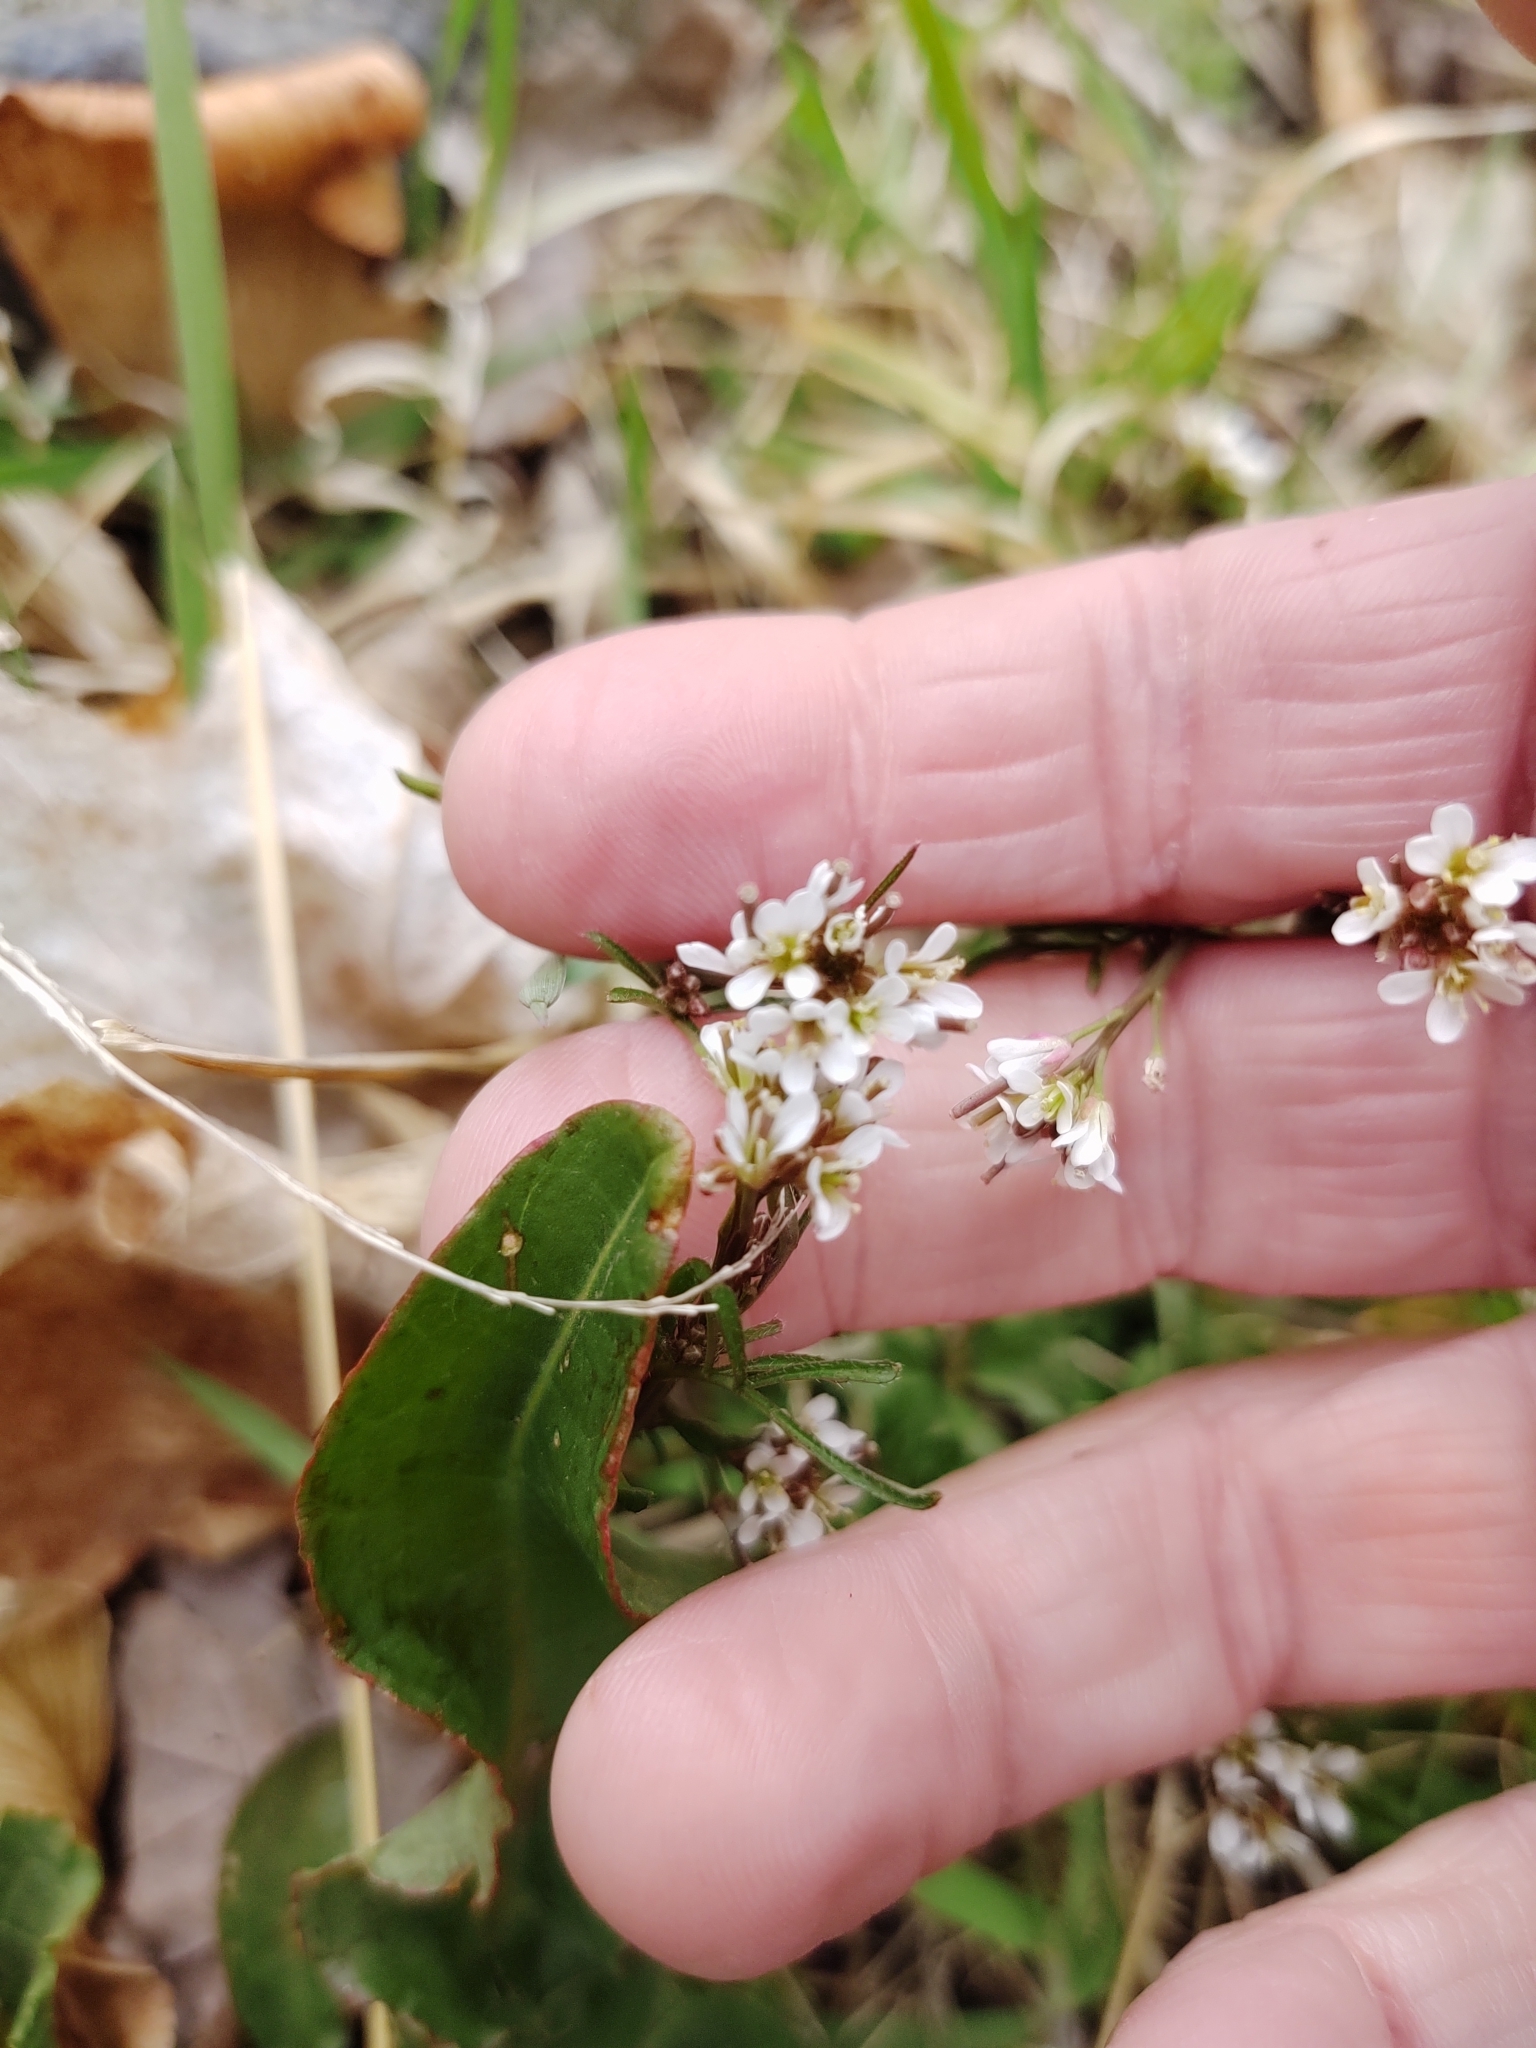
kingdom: Plantae
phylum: Tracheophyta
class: Magnoliopsida
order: Brassicales
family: Brassicaceae
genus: Cardamine
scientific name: Cardamine hirsuta
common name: Hairy bittercress
